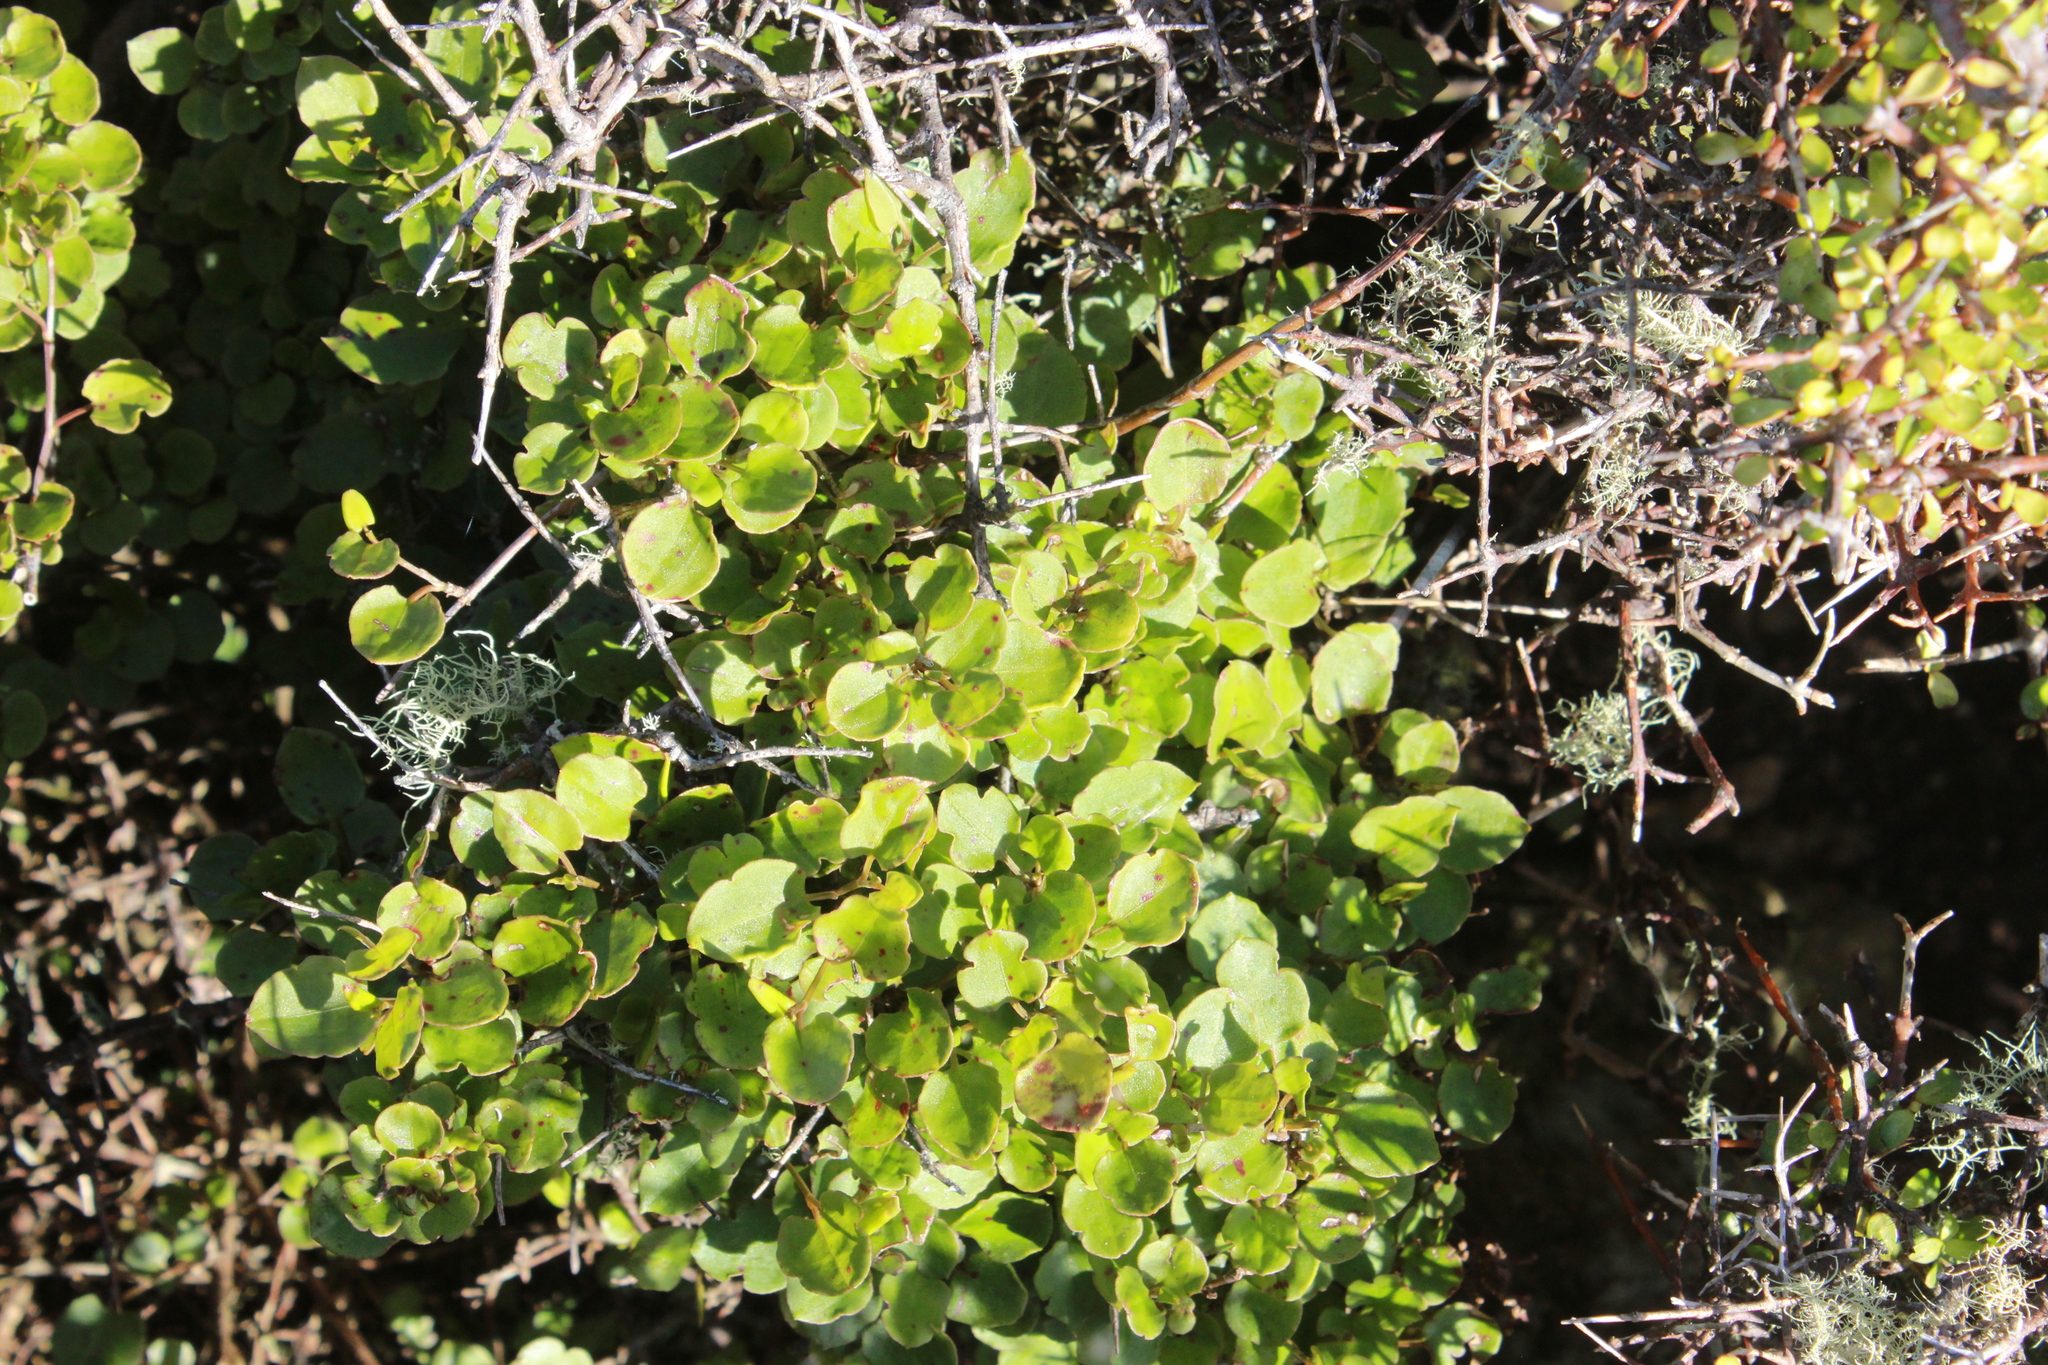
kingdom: Plantae
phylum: Tracheophyta
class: Magnoliopsida
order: Caryophyllales
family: Polygonaceae
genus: Muehlenbeckia
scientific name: Muehlenbeckia australis
